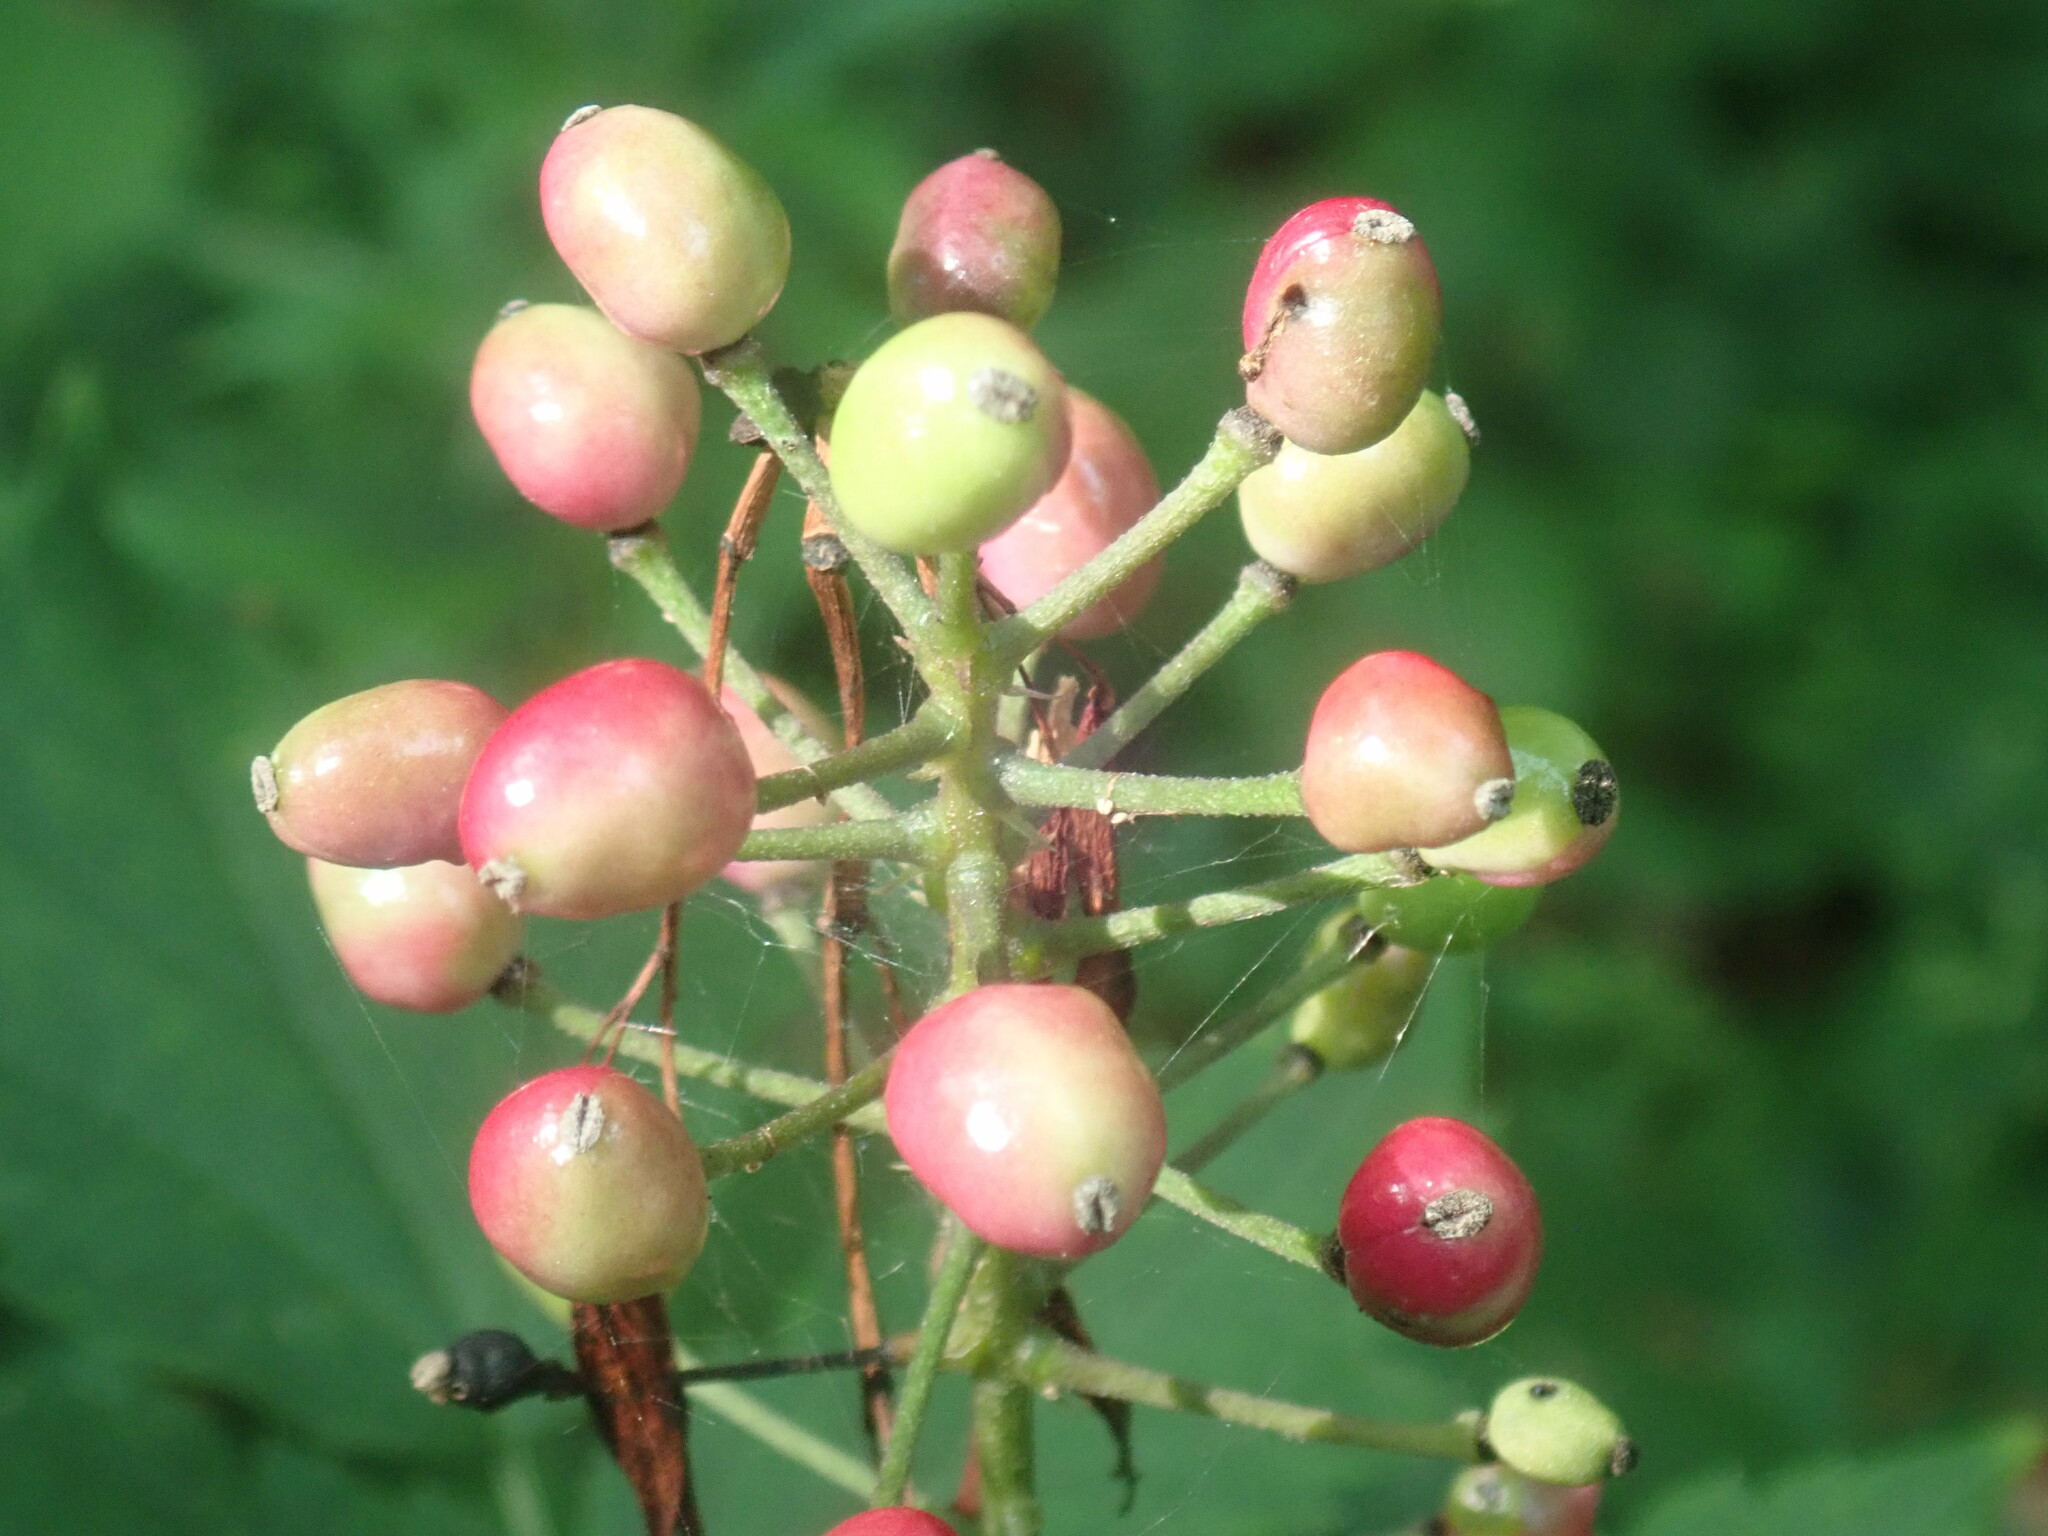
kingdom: Plantae
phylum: Tracheophyta
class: Magnoliopsida
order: Ranunculales
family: Ranunculaceae
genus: Actaea
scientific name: Actaea rubra
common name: Red baneberry
